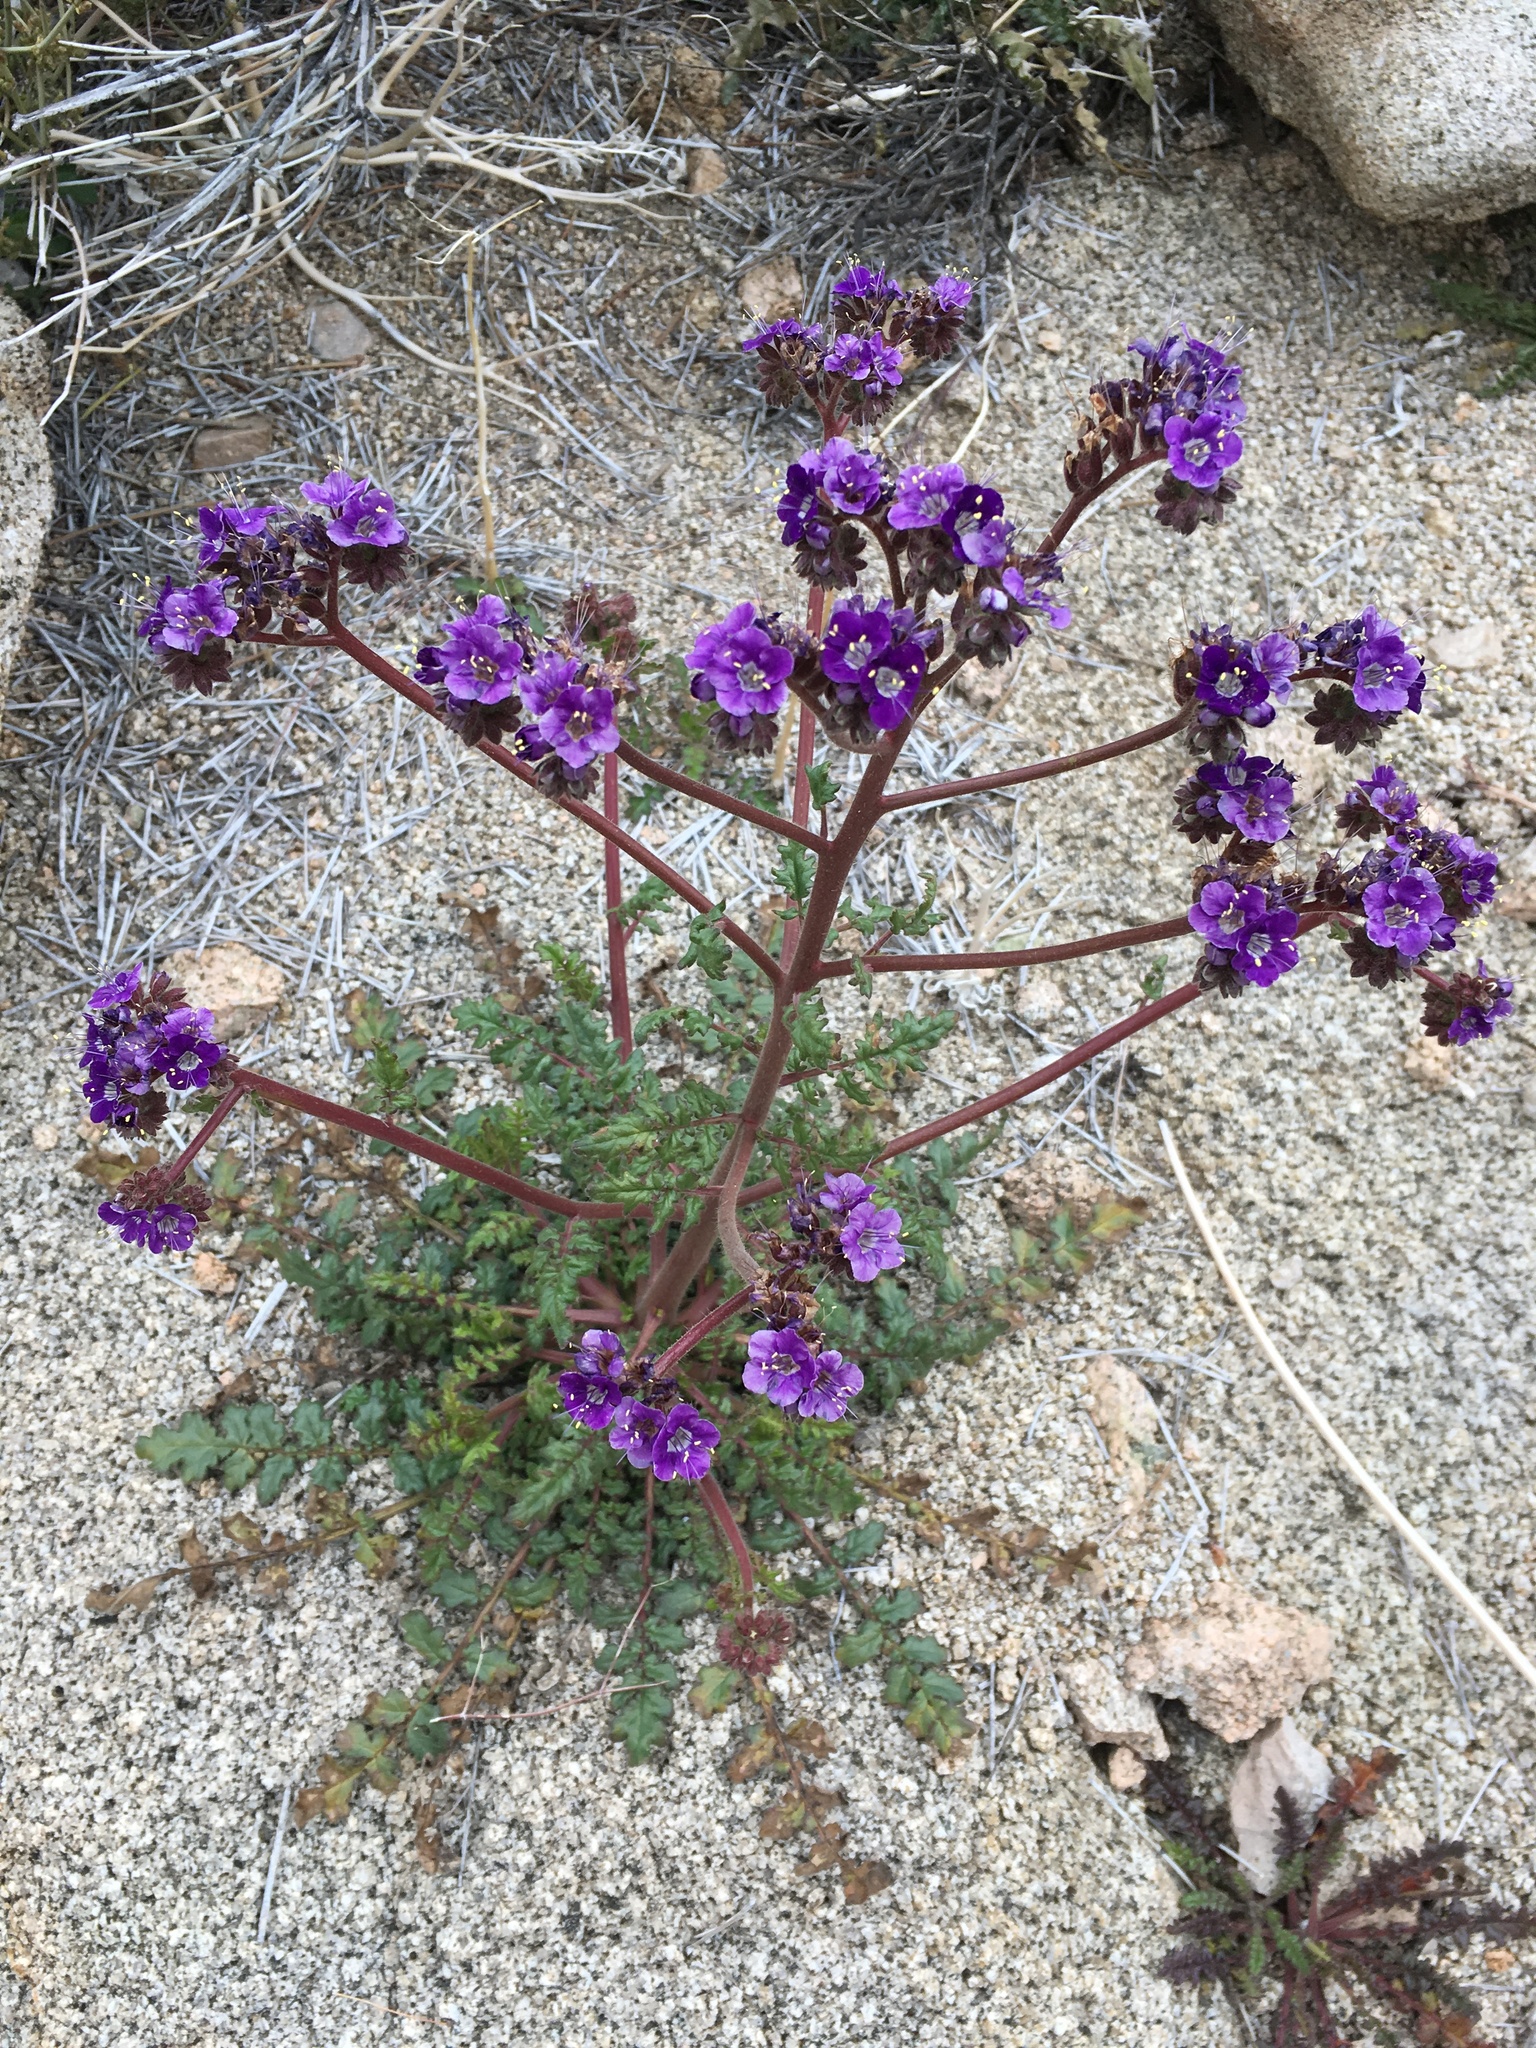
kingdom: Plantae
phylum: Tracheophyta
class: Magnoliopsida
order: Boraginales
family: Hydrophyllaceae
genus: Phacelia
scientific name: Phacelia crenulata
